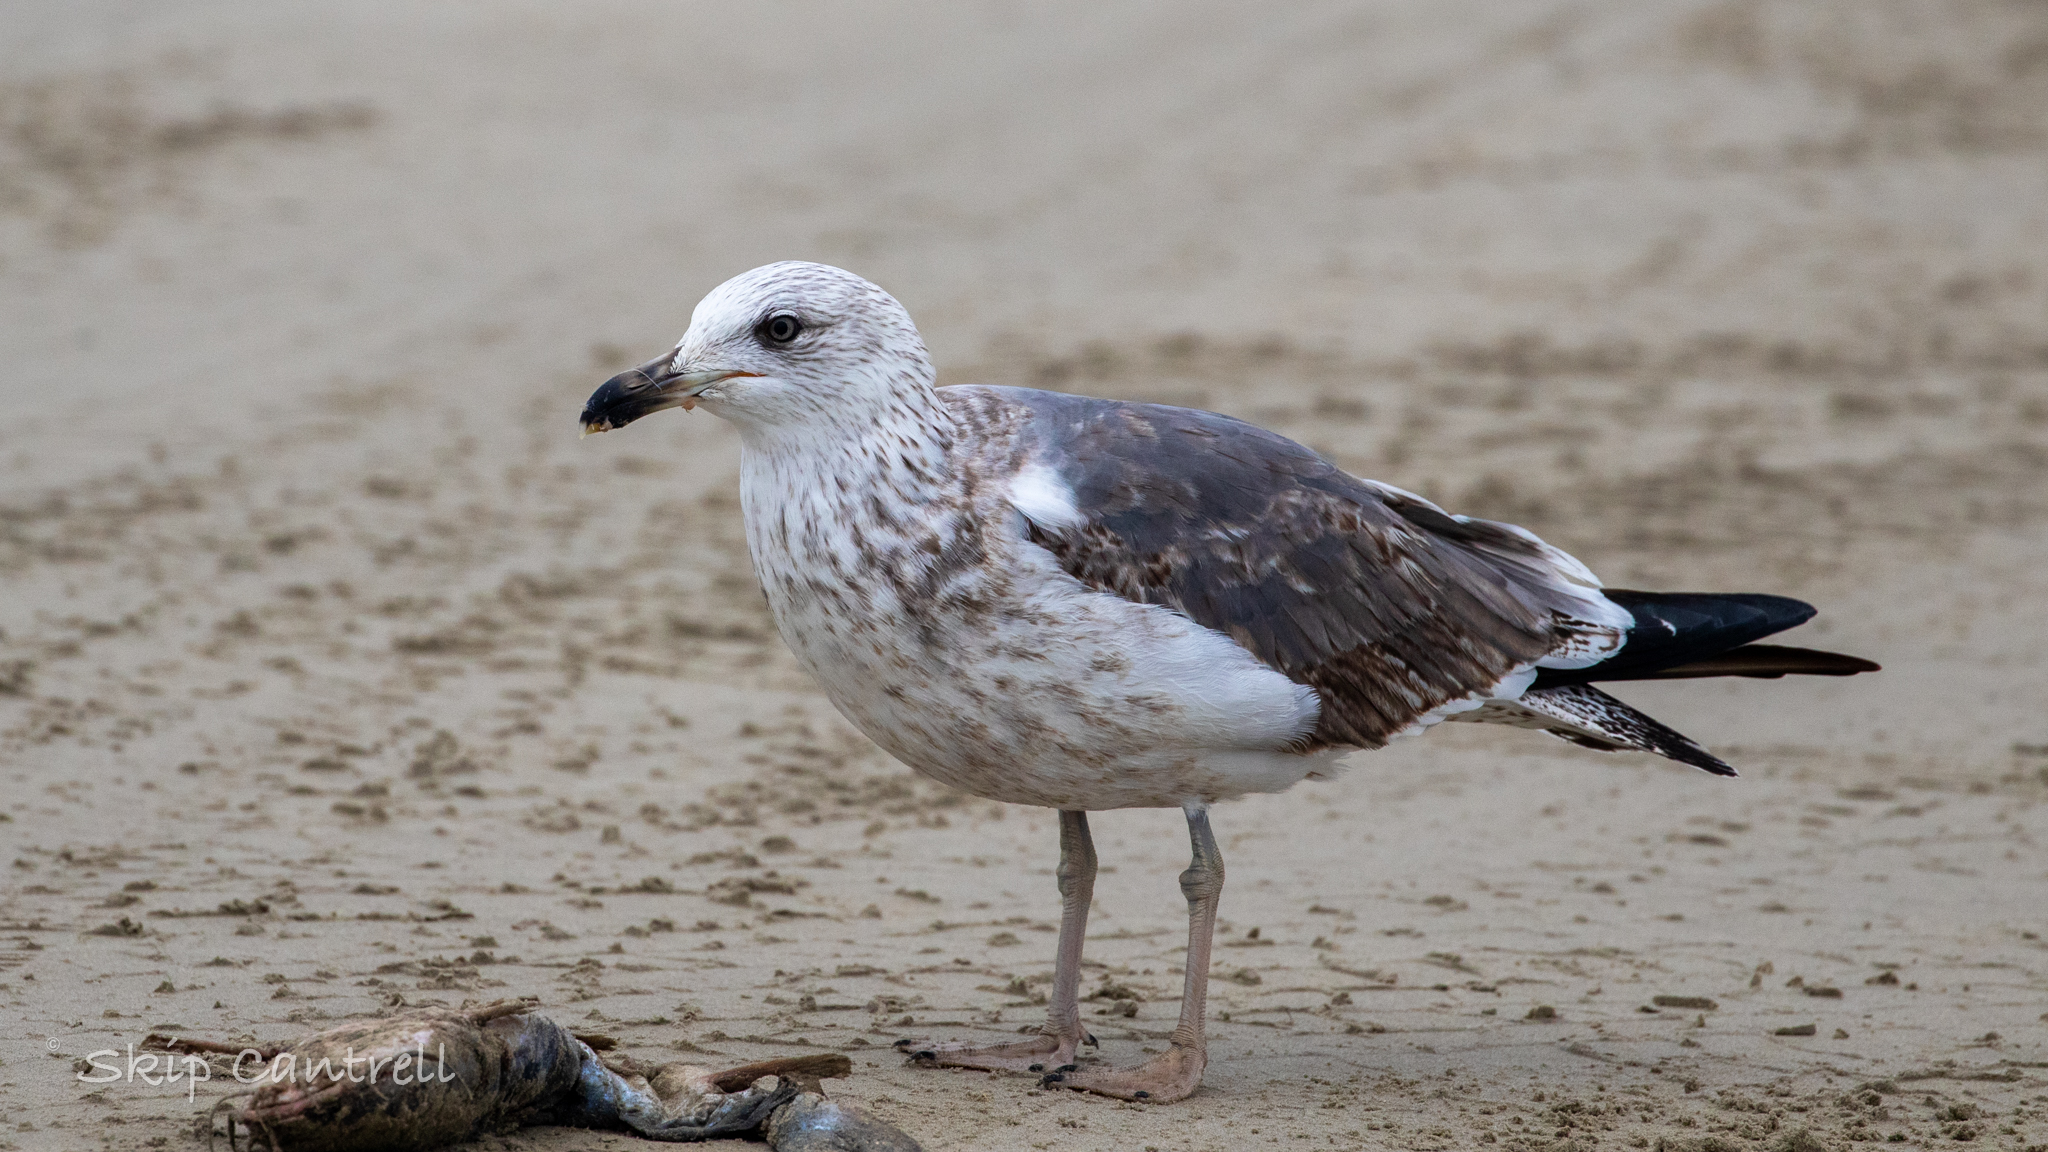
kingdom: Animalia
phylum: Chordata
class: Aves
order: Charadriiformes
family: Laridae
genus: Larus
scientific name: Larus fuscus
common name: Lesser black-backed gull
